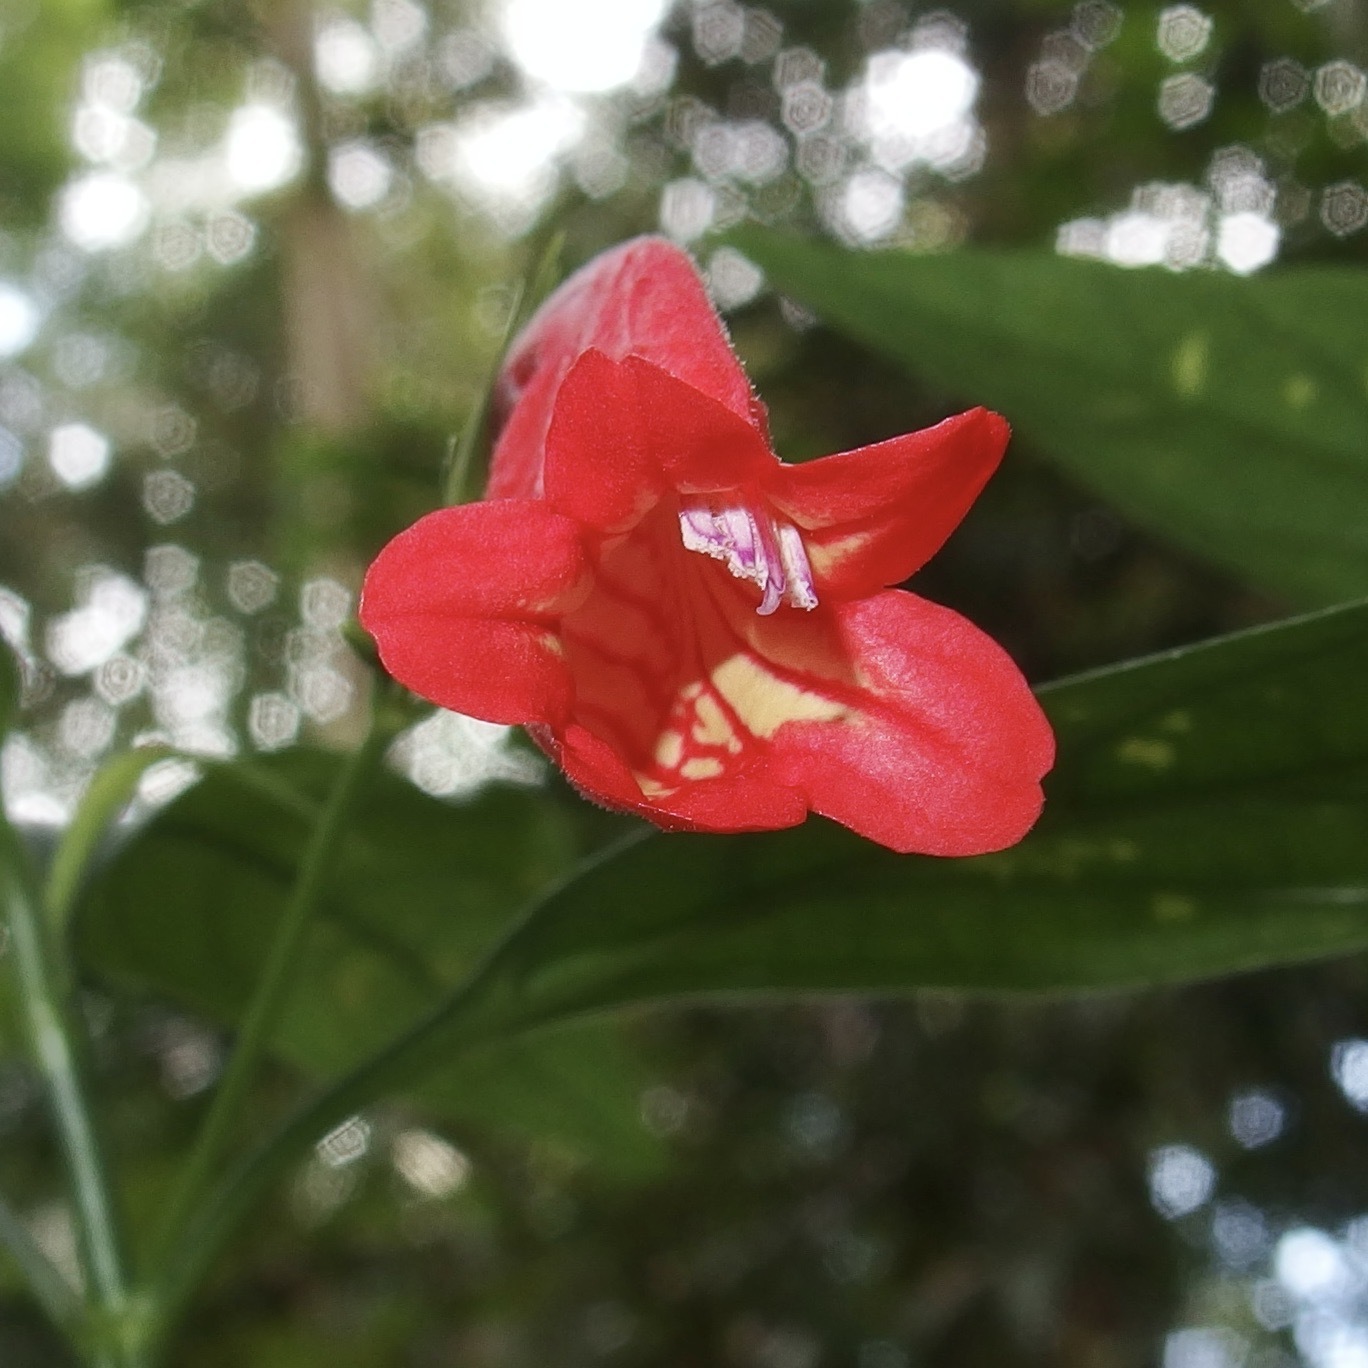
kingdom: Plantae
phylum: Tracheophyta
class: Magnoliopsida
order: Lamiales
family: Acanthaceae
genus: Ruellia
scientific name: Ruellia brevifolia
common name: Tropical wild petunia
